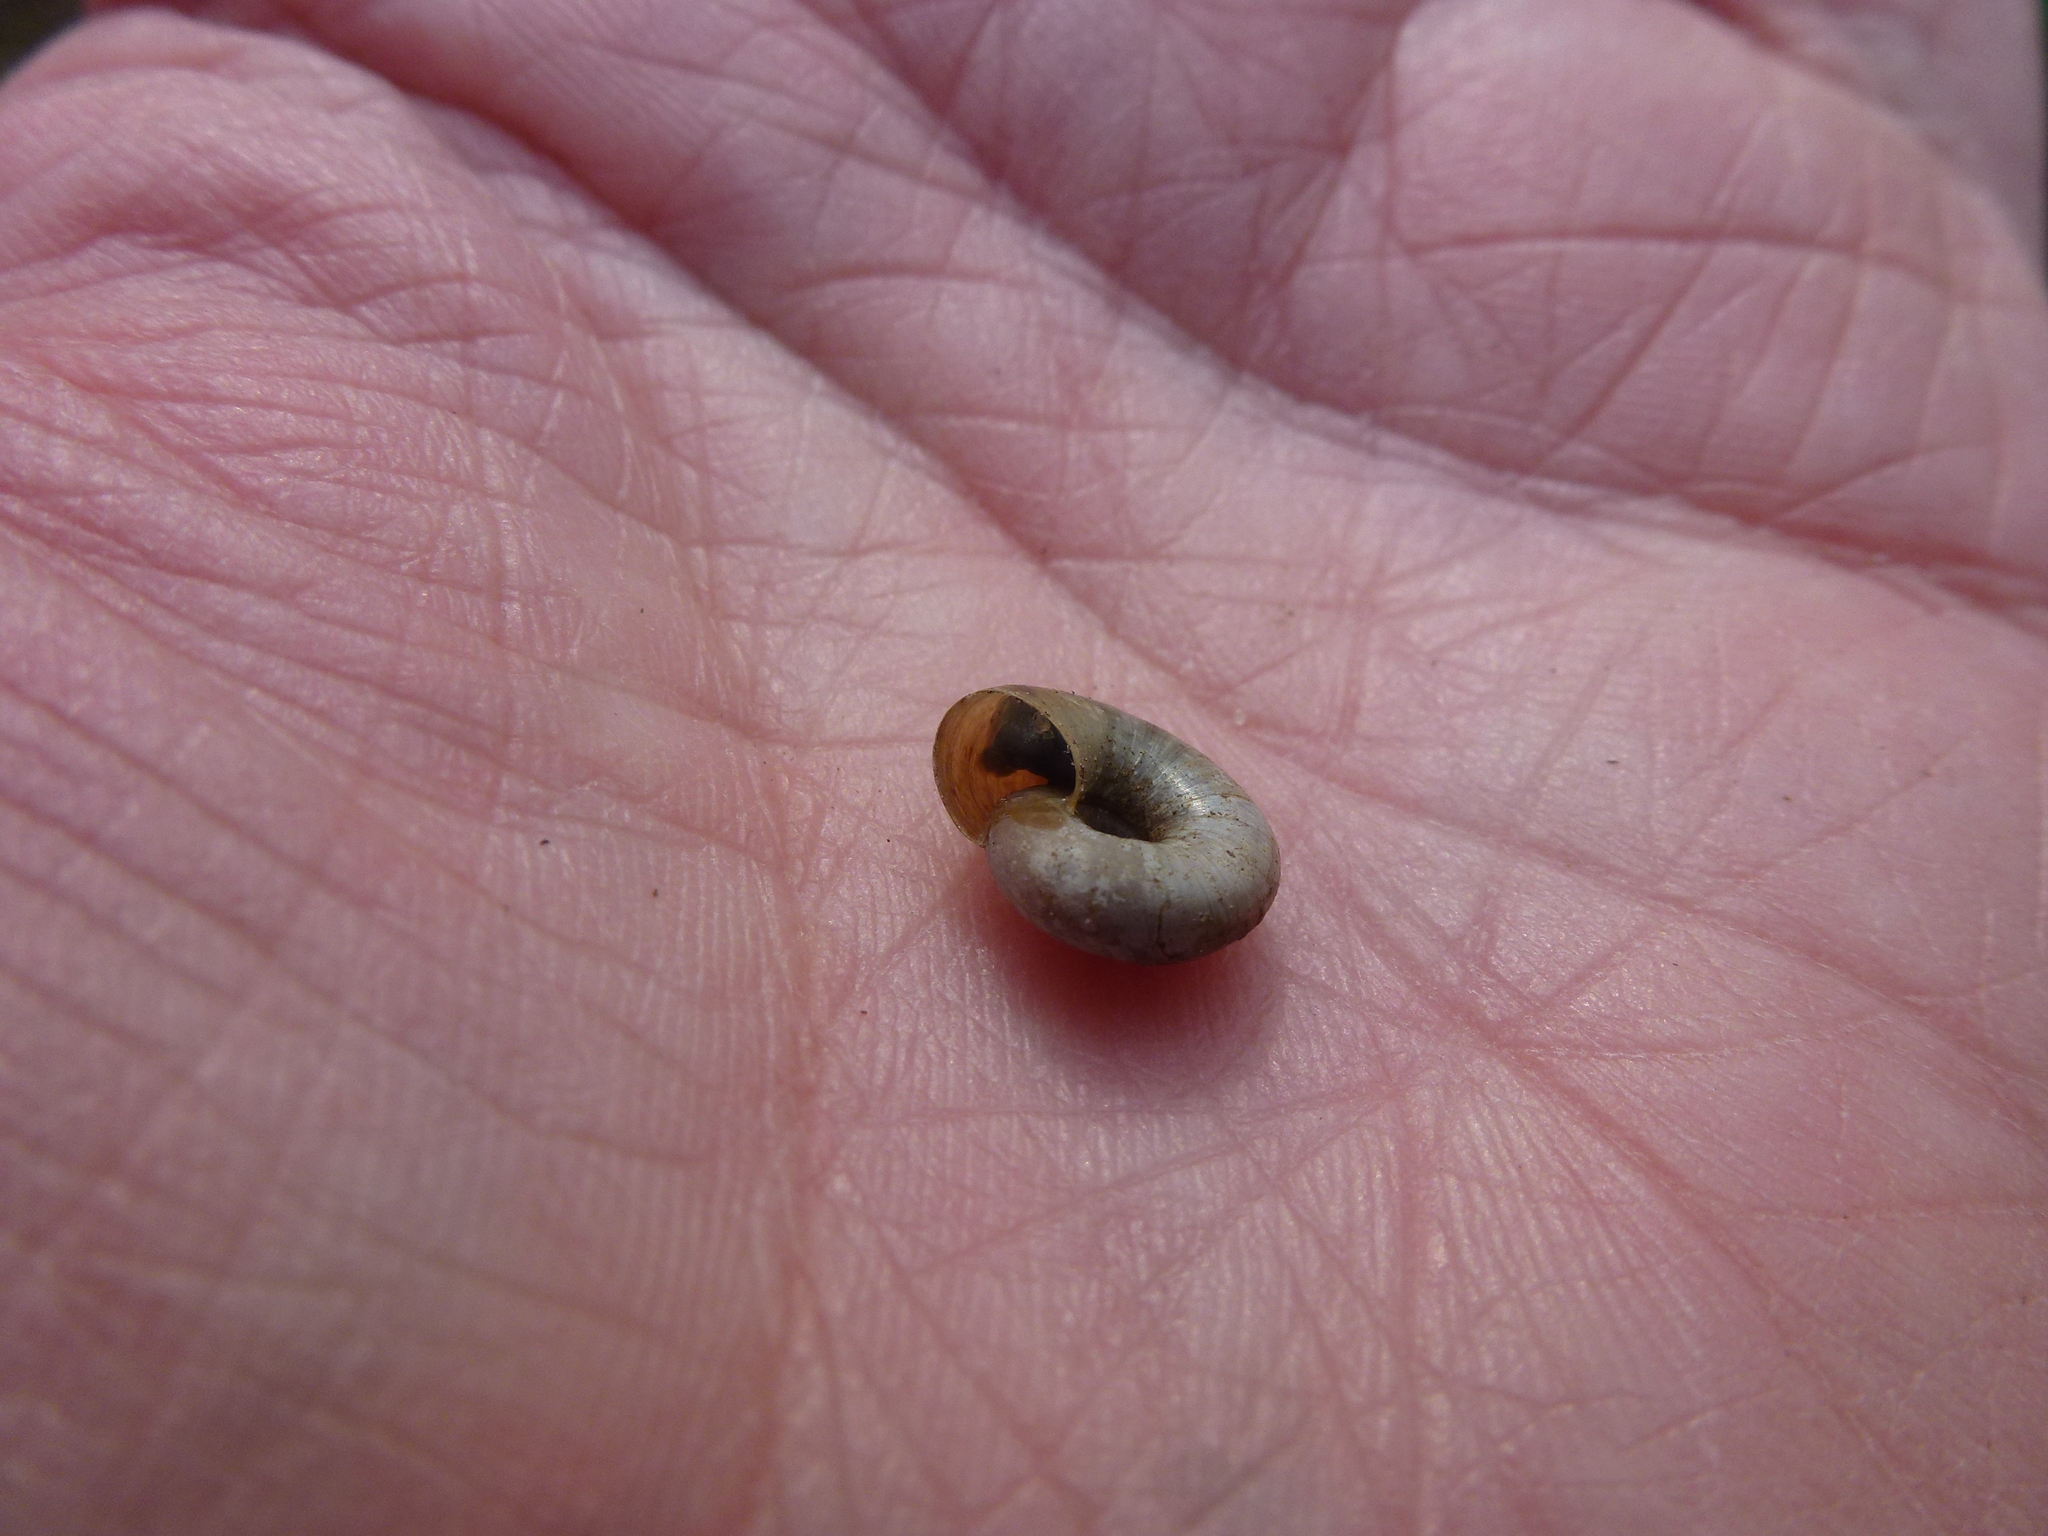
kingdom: Animalia
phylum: Mollusca
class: Gastropoda
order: Stylommatophora
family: Gastrodontidae
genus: Aegopinella
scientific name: Aegopinella nitidula
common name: Smooth glass snail
